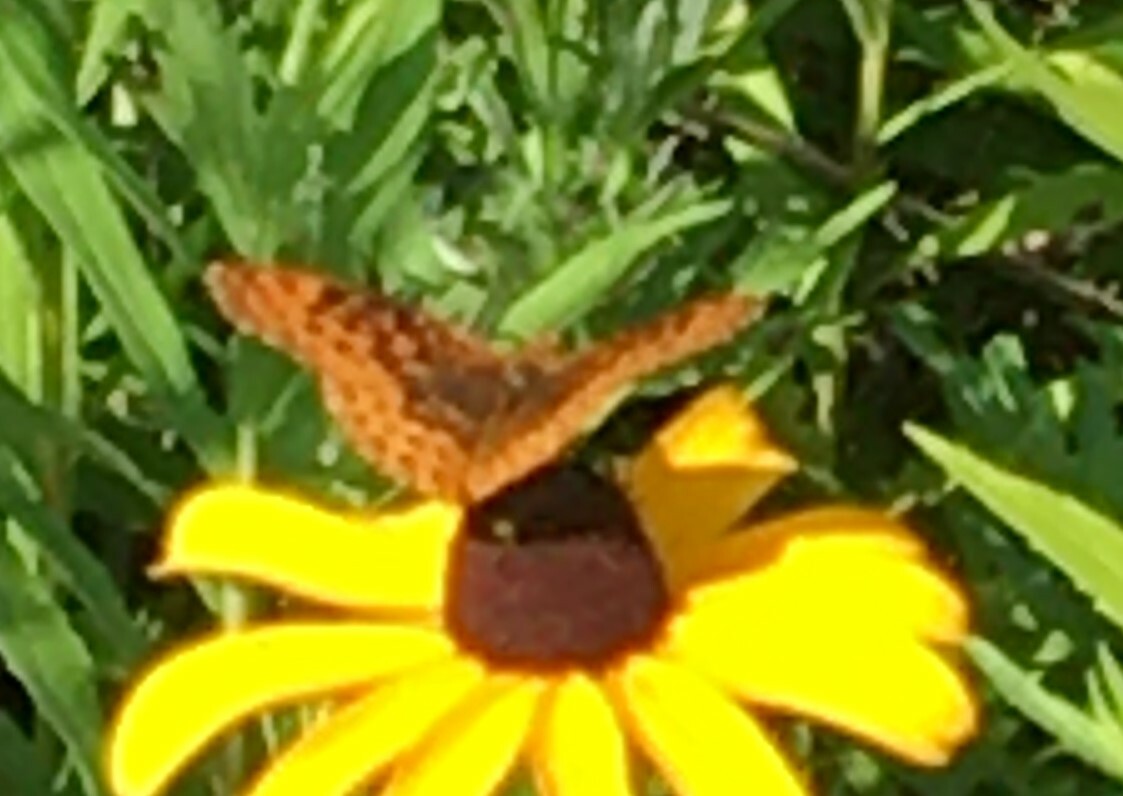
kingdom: Animalia
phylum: Arthropoda
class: Insecta
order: Lepidoptera
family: Nymphalidae
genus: Clossiana
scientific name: Clossiana toddi
